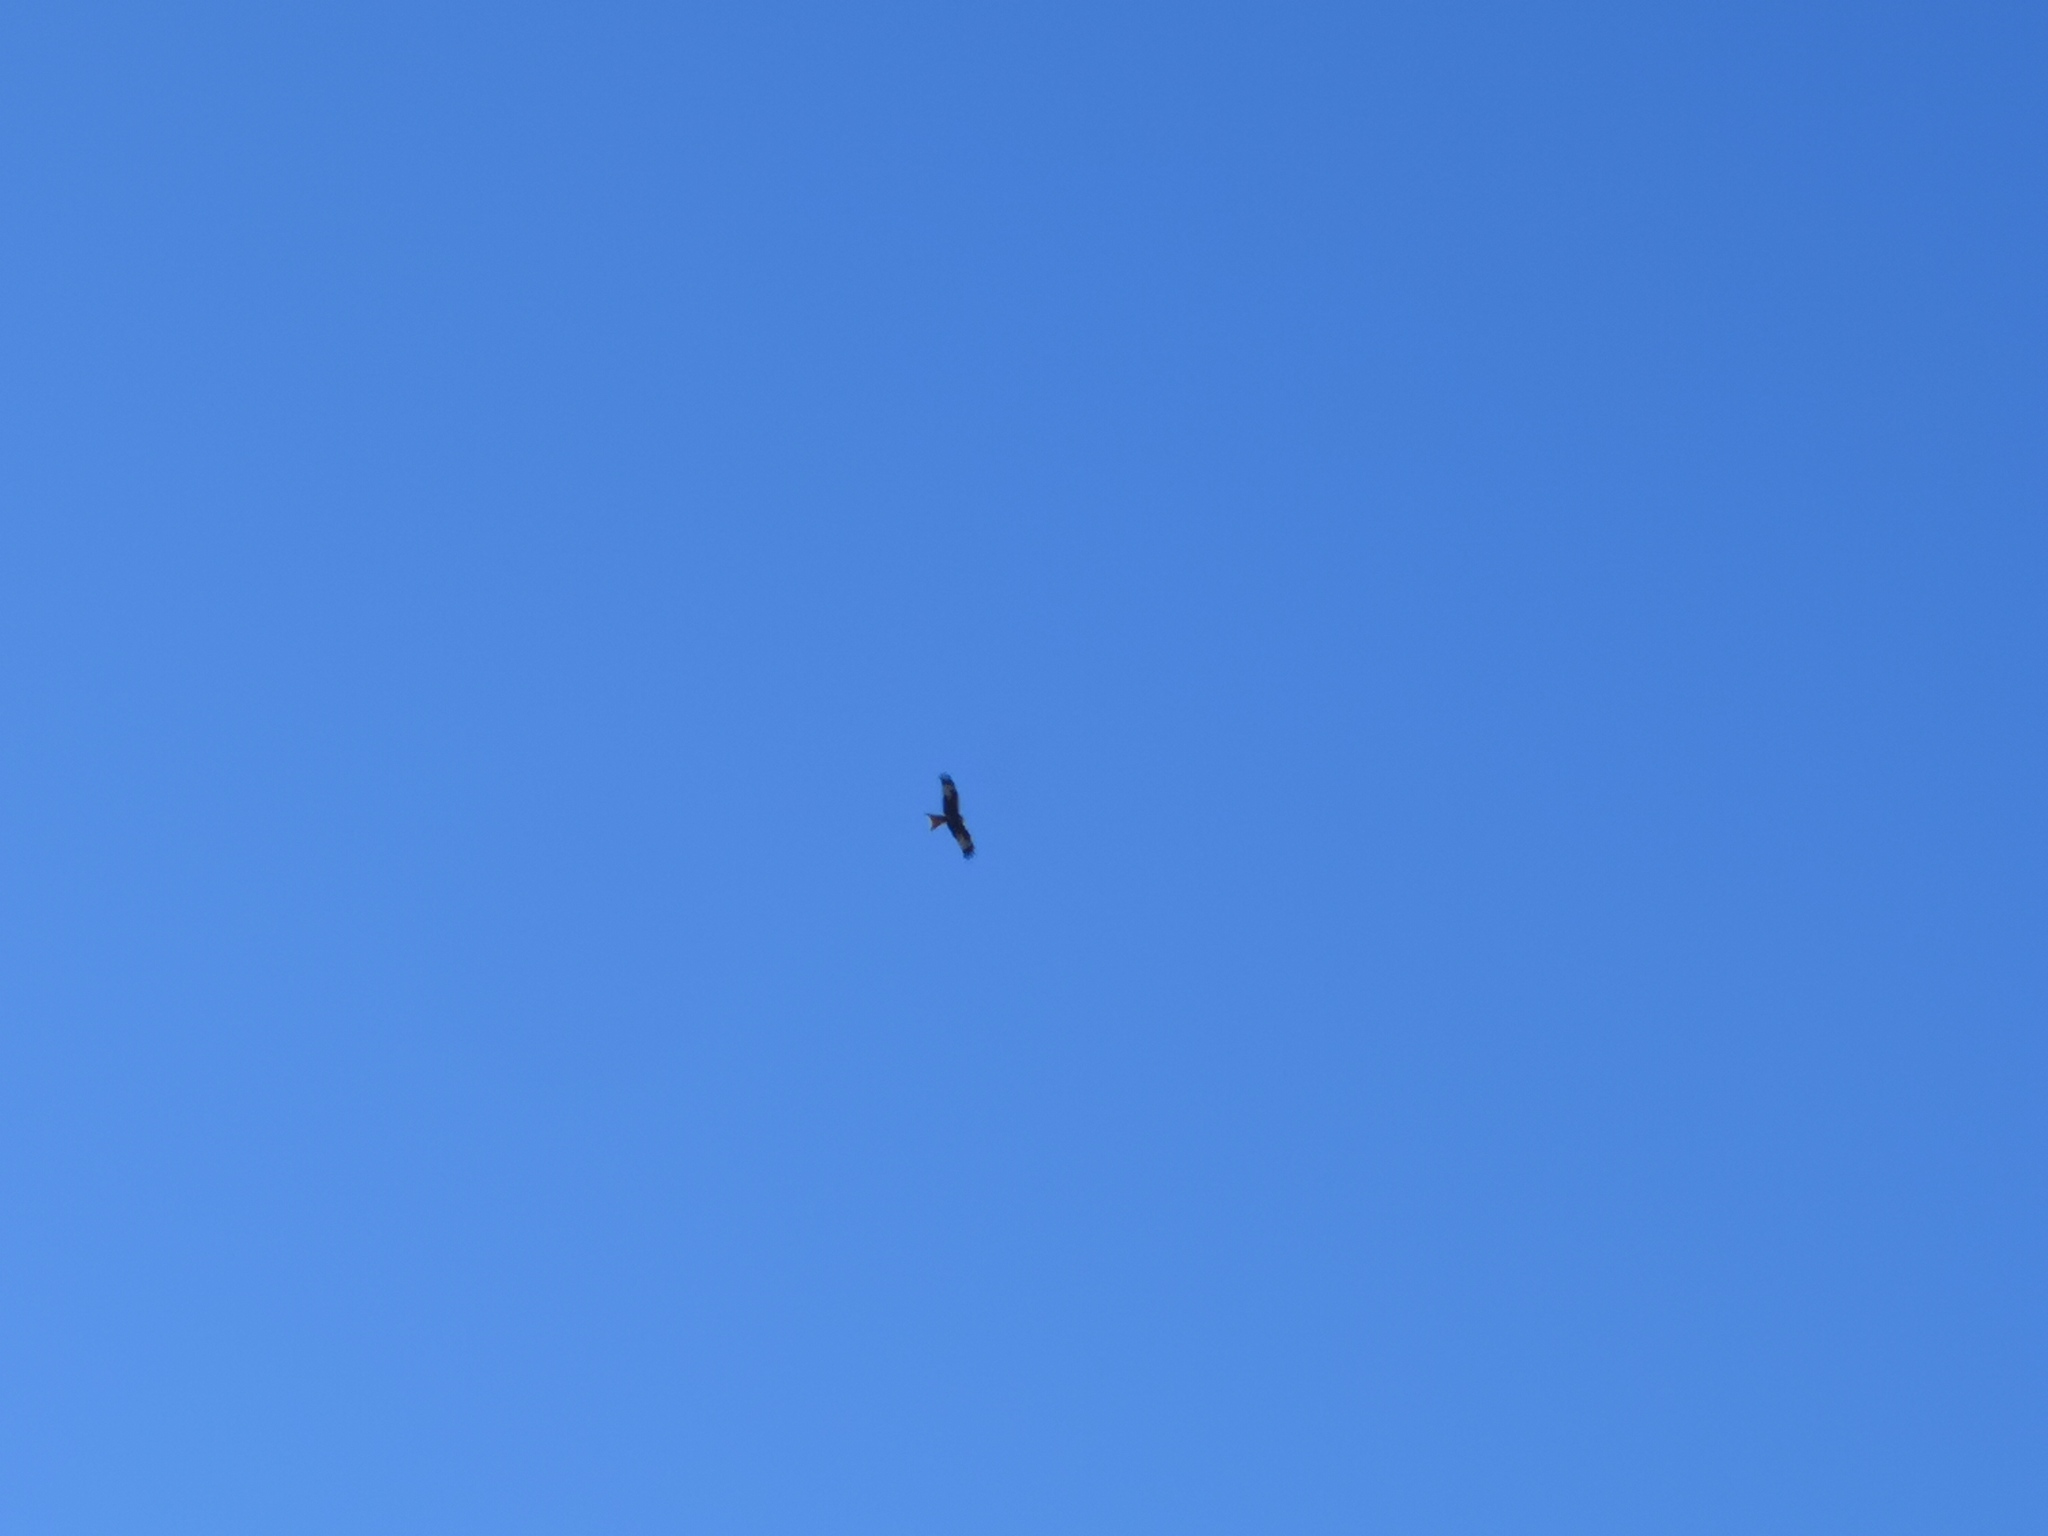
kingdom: Animalia
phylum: Chordata
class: Aves
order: Accipitriformes
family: Accipitridae
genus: Milvus
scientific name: Milvus milvus
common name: Red kite
